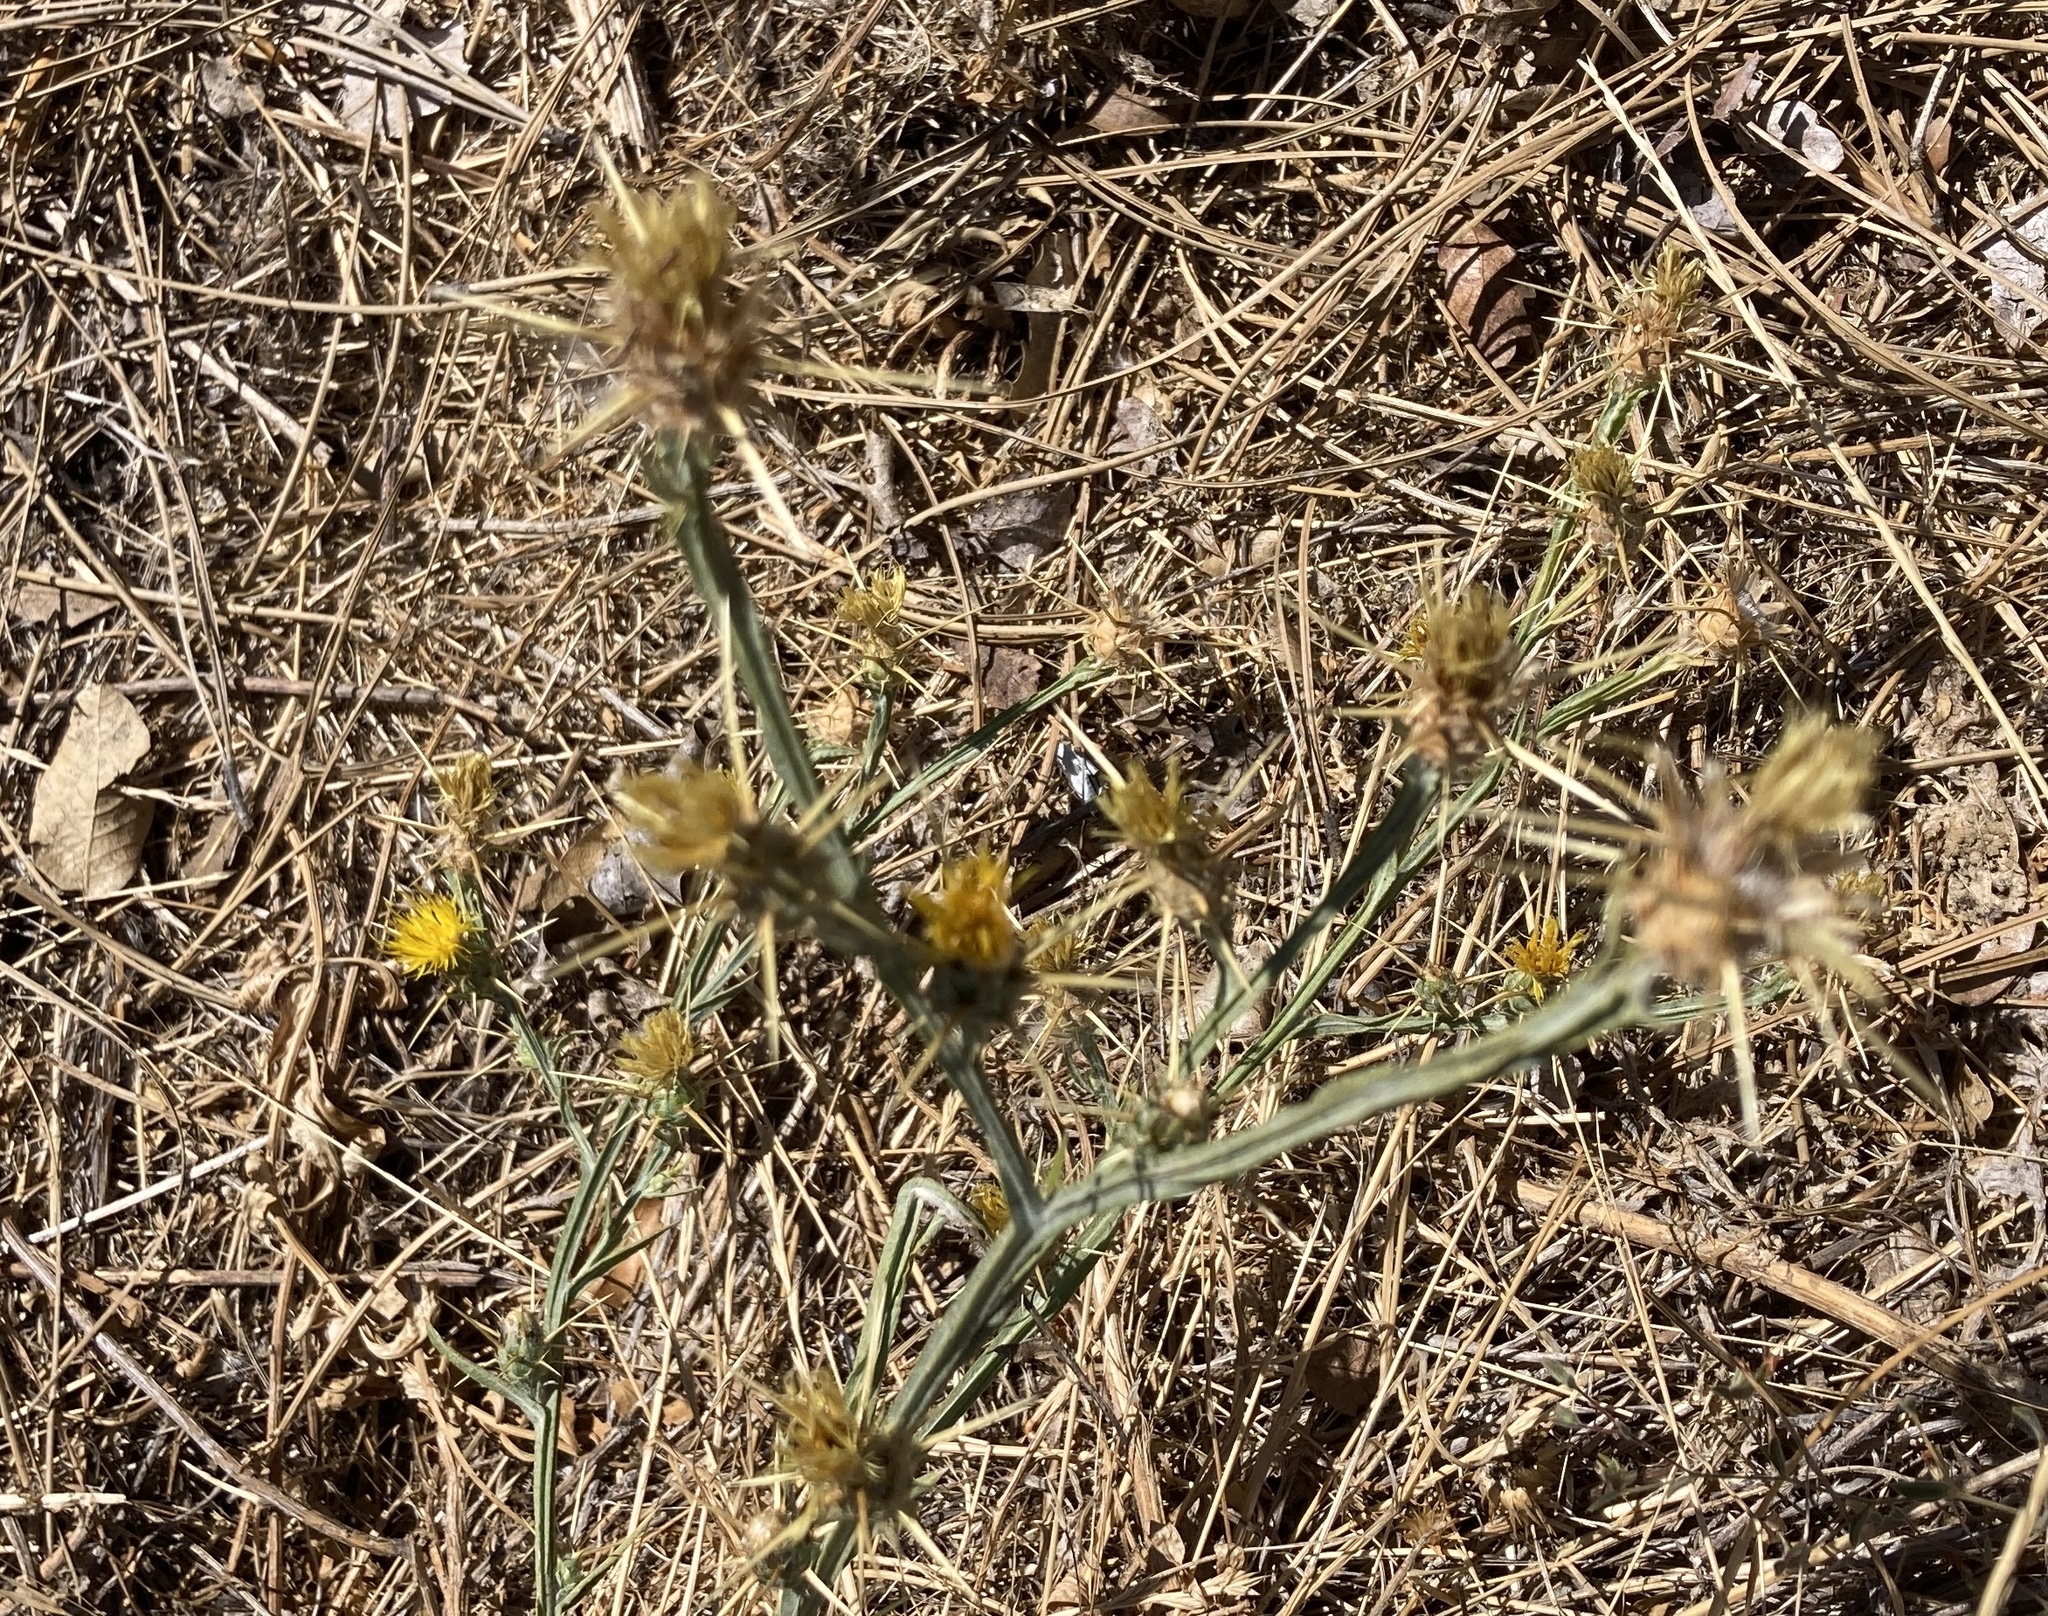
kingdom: Plantae
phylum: Tracheophyta
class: Magnoliopsida
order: Asterales
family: Asteraceae
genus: Centaurea
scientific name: Centaurea solstitialis
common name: Yellow star-thistle
